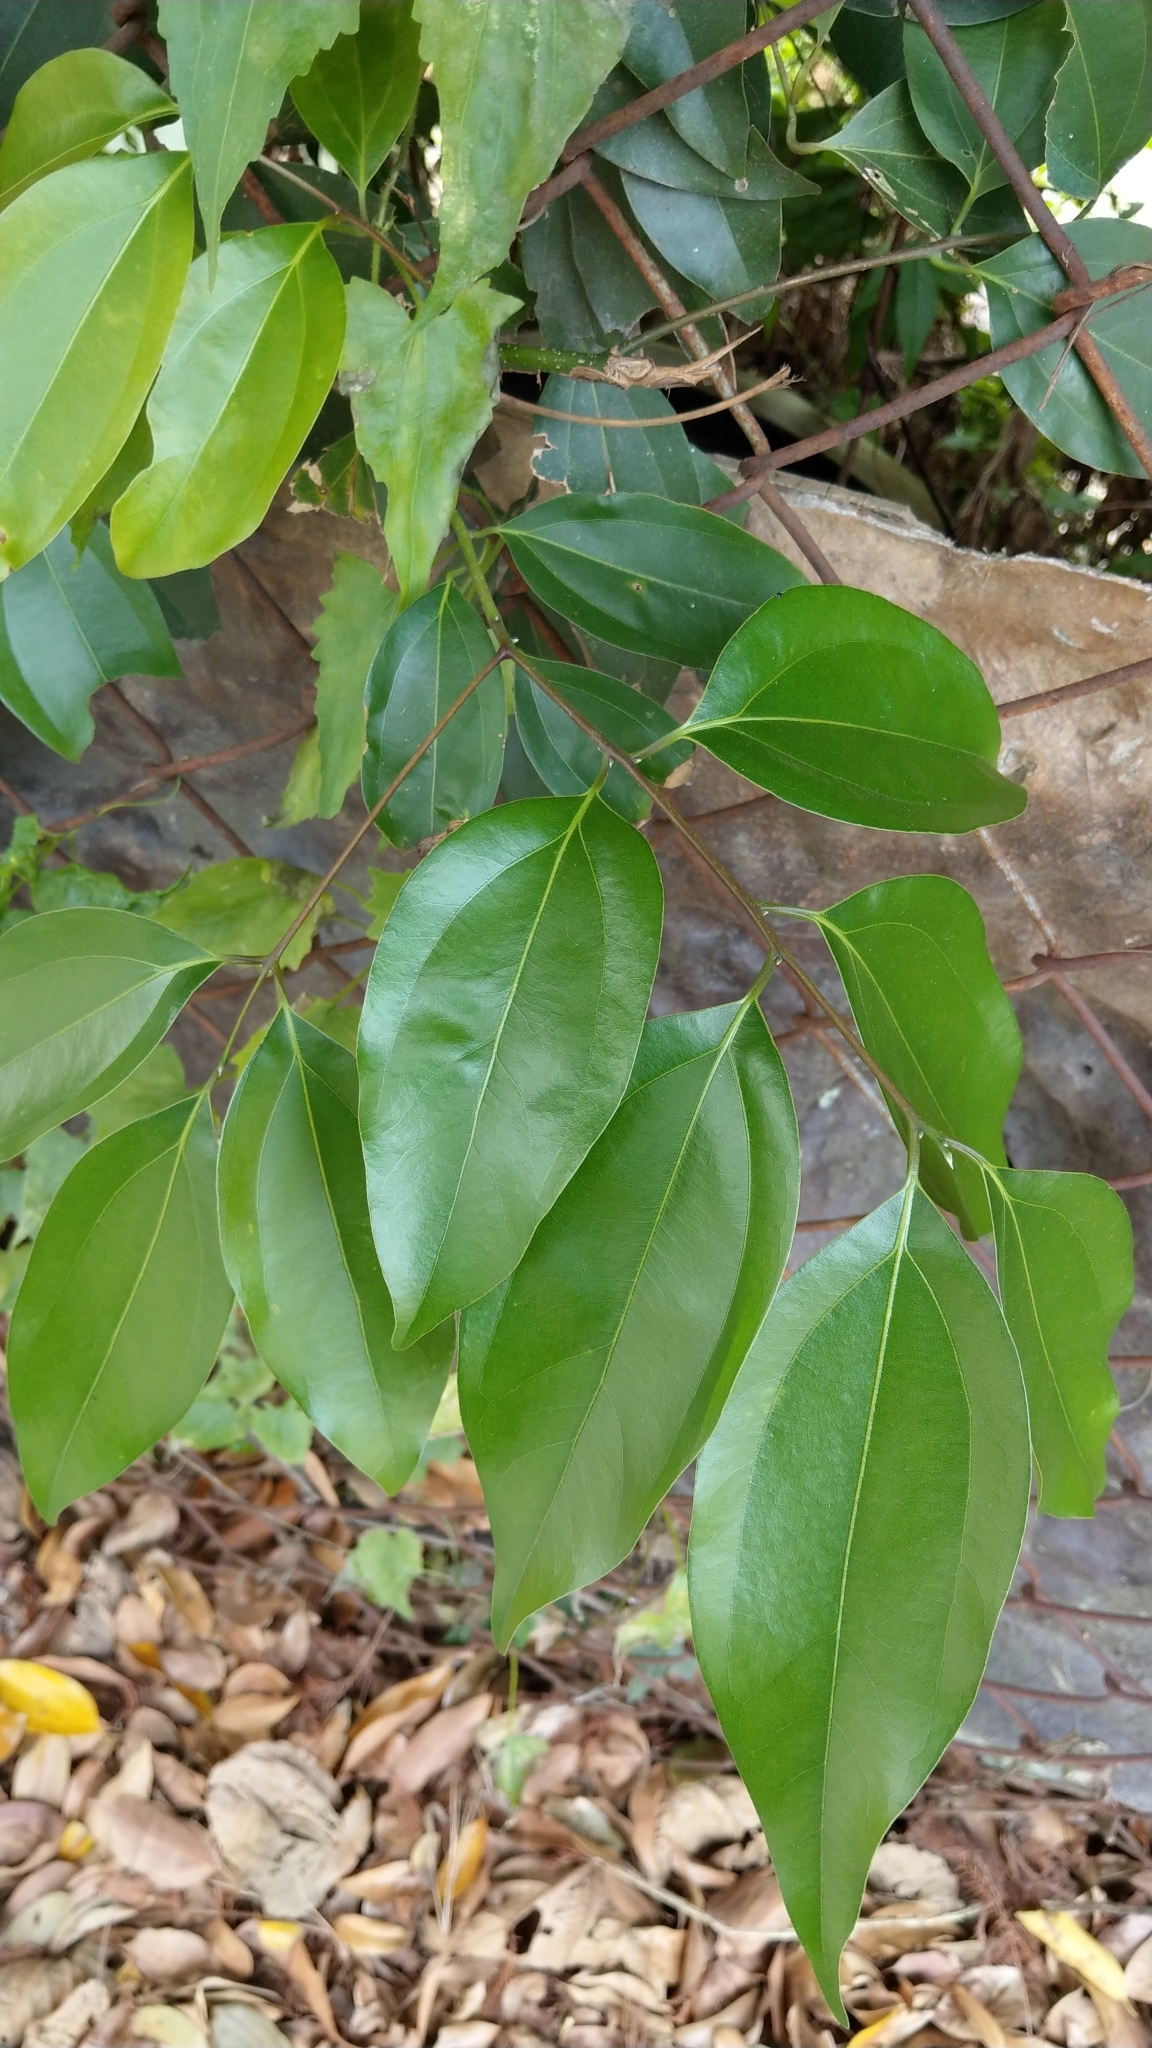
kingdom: Plantae
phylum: Tracheophyta
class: Magnoliopsida
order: Laurales
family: Lauraceae
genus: Cinnamomum
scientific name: Cinnamomum burmanni
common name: Padang cassia
